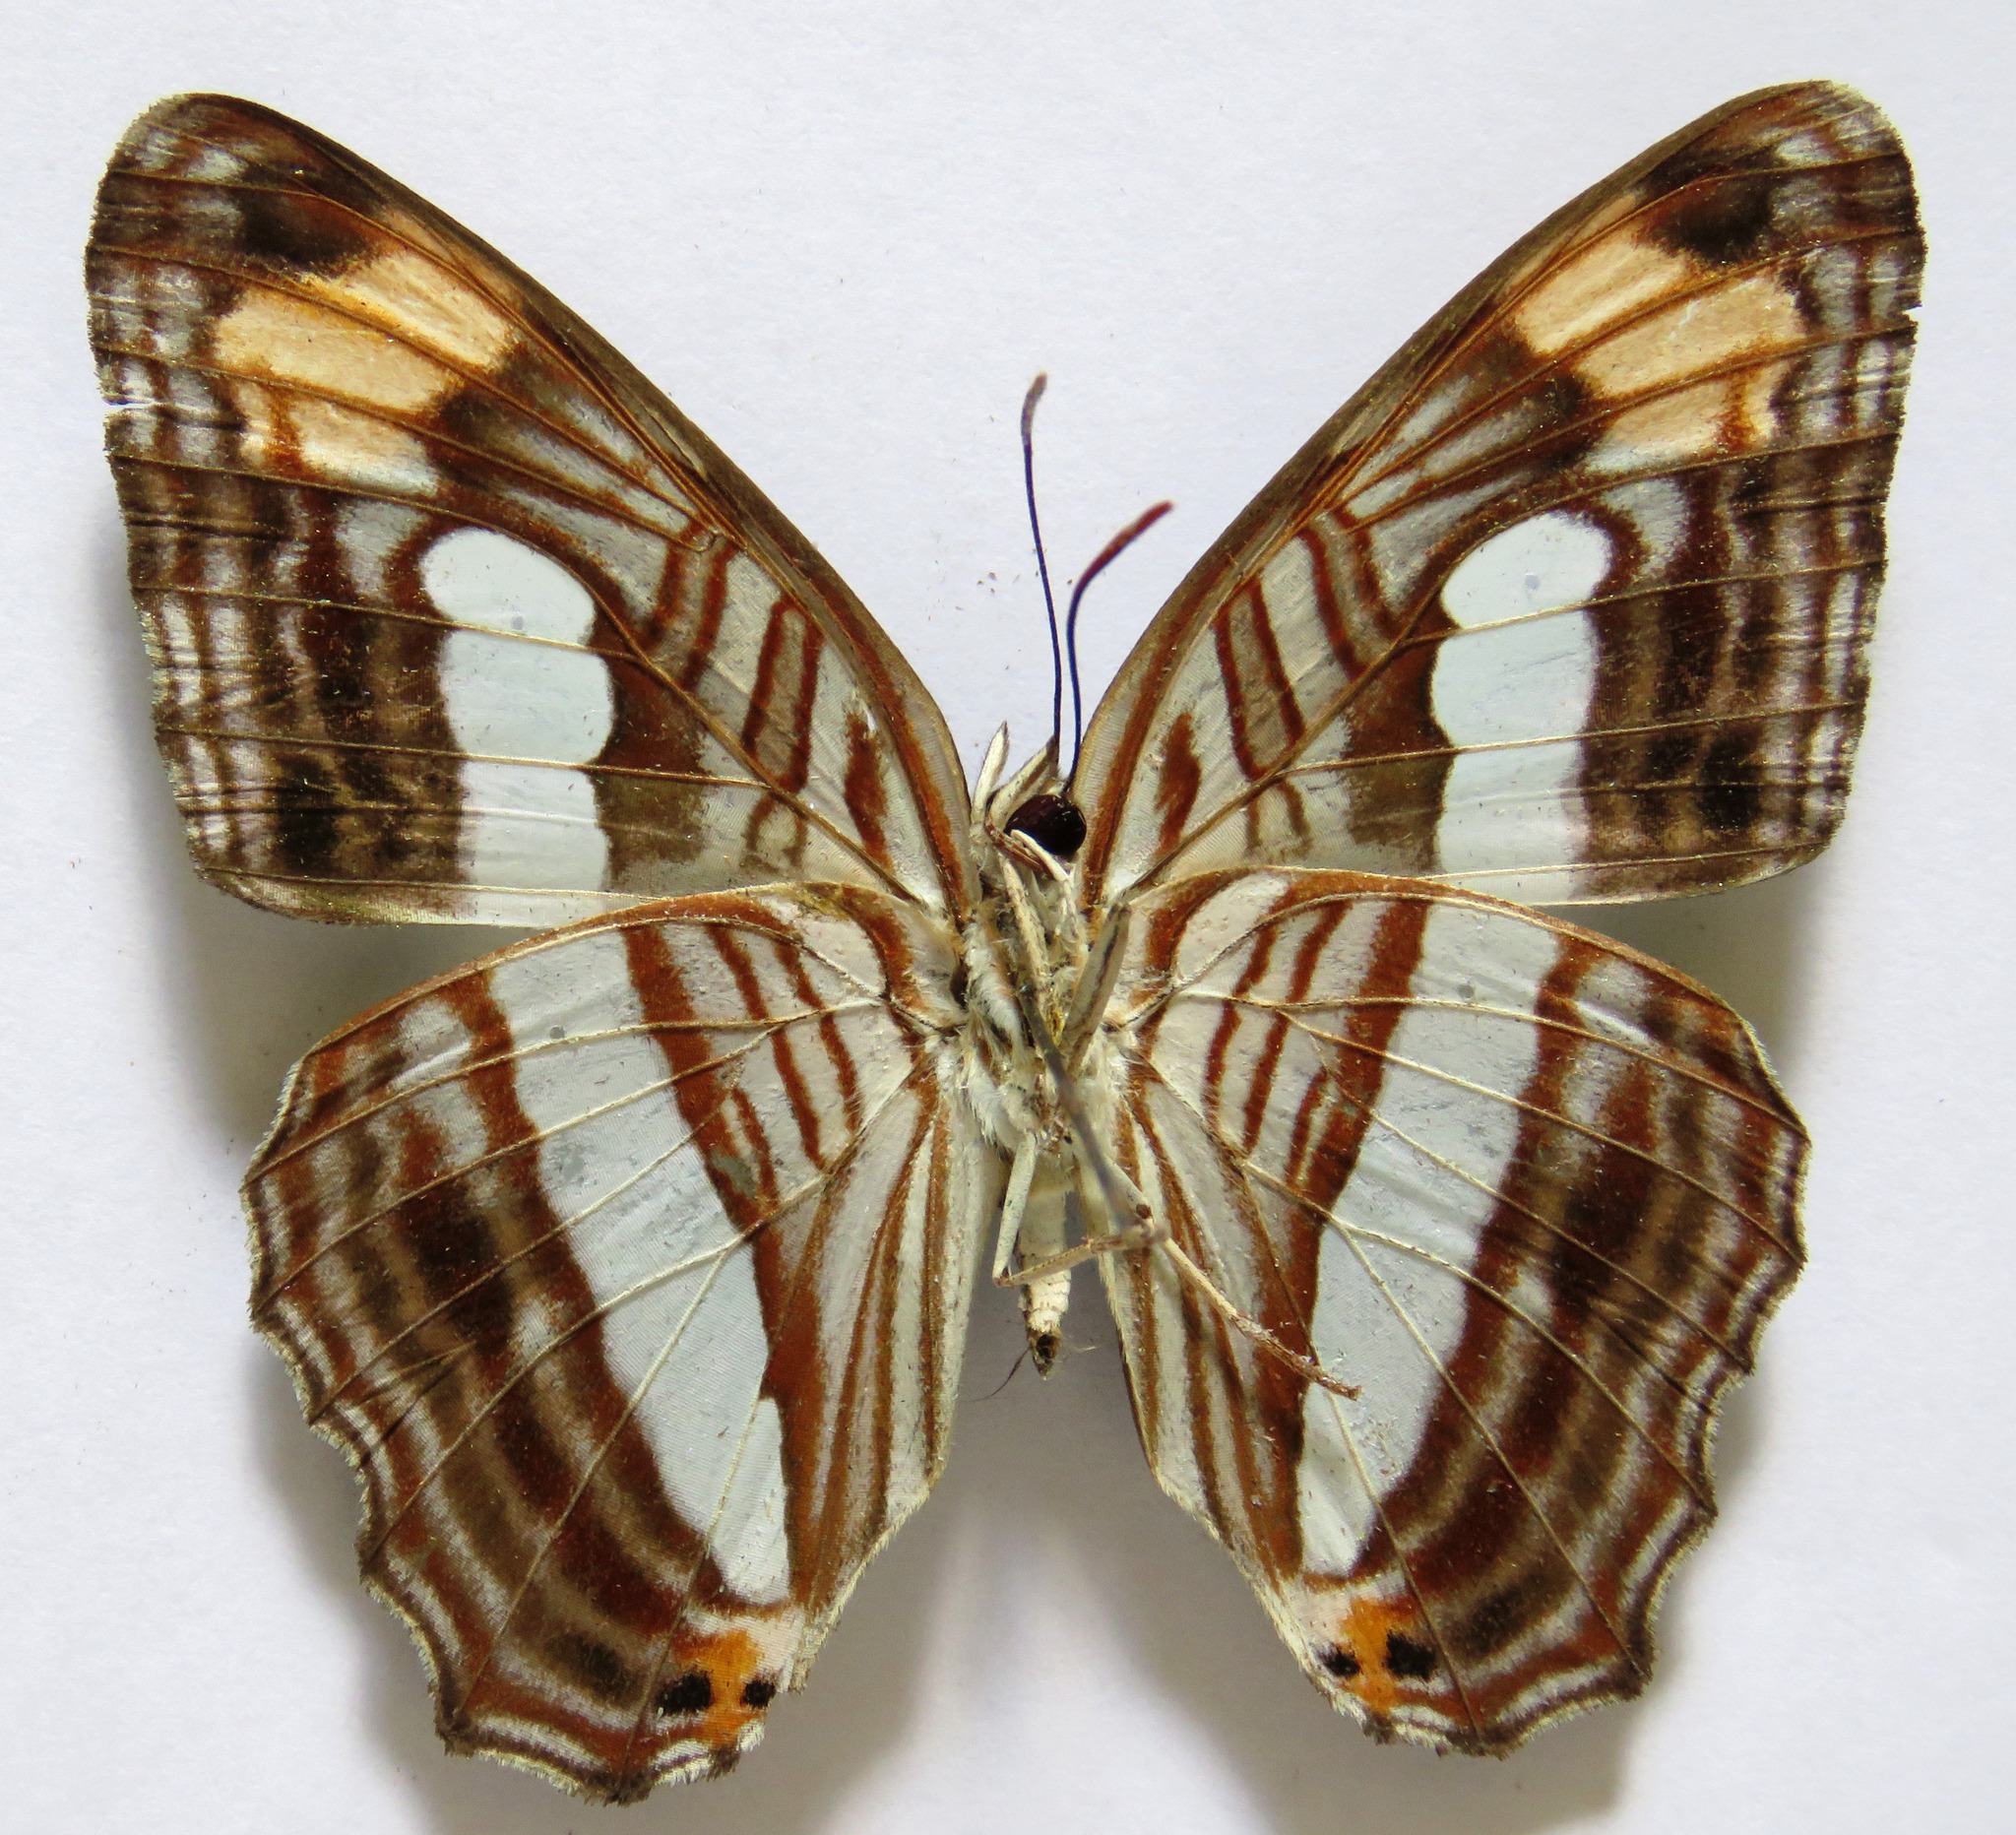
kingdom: Animalia
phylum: Arthropoda
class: Insecta
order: Lepidoptera
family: Nymphalidae
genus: Limenitis
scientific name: Limenitis iphiclus
